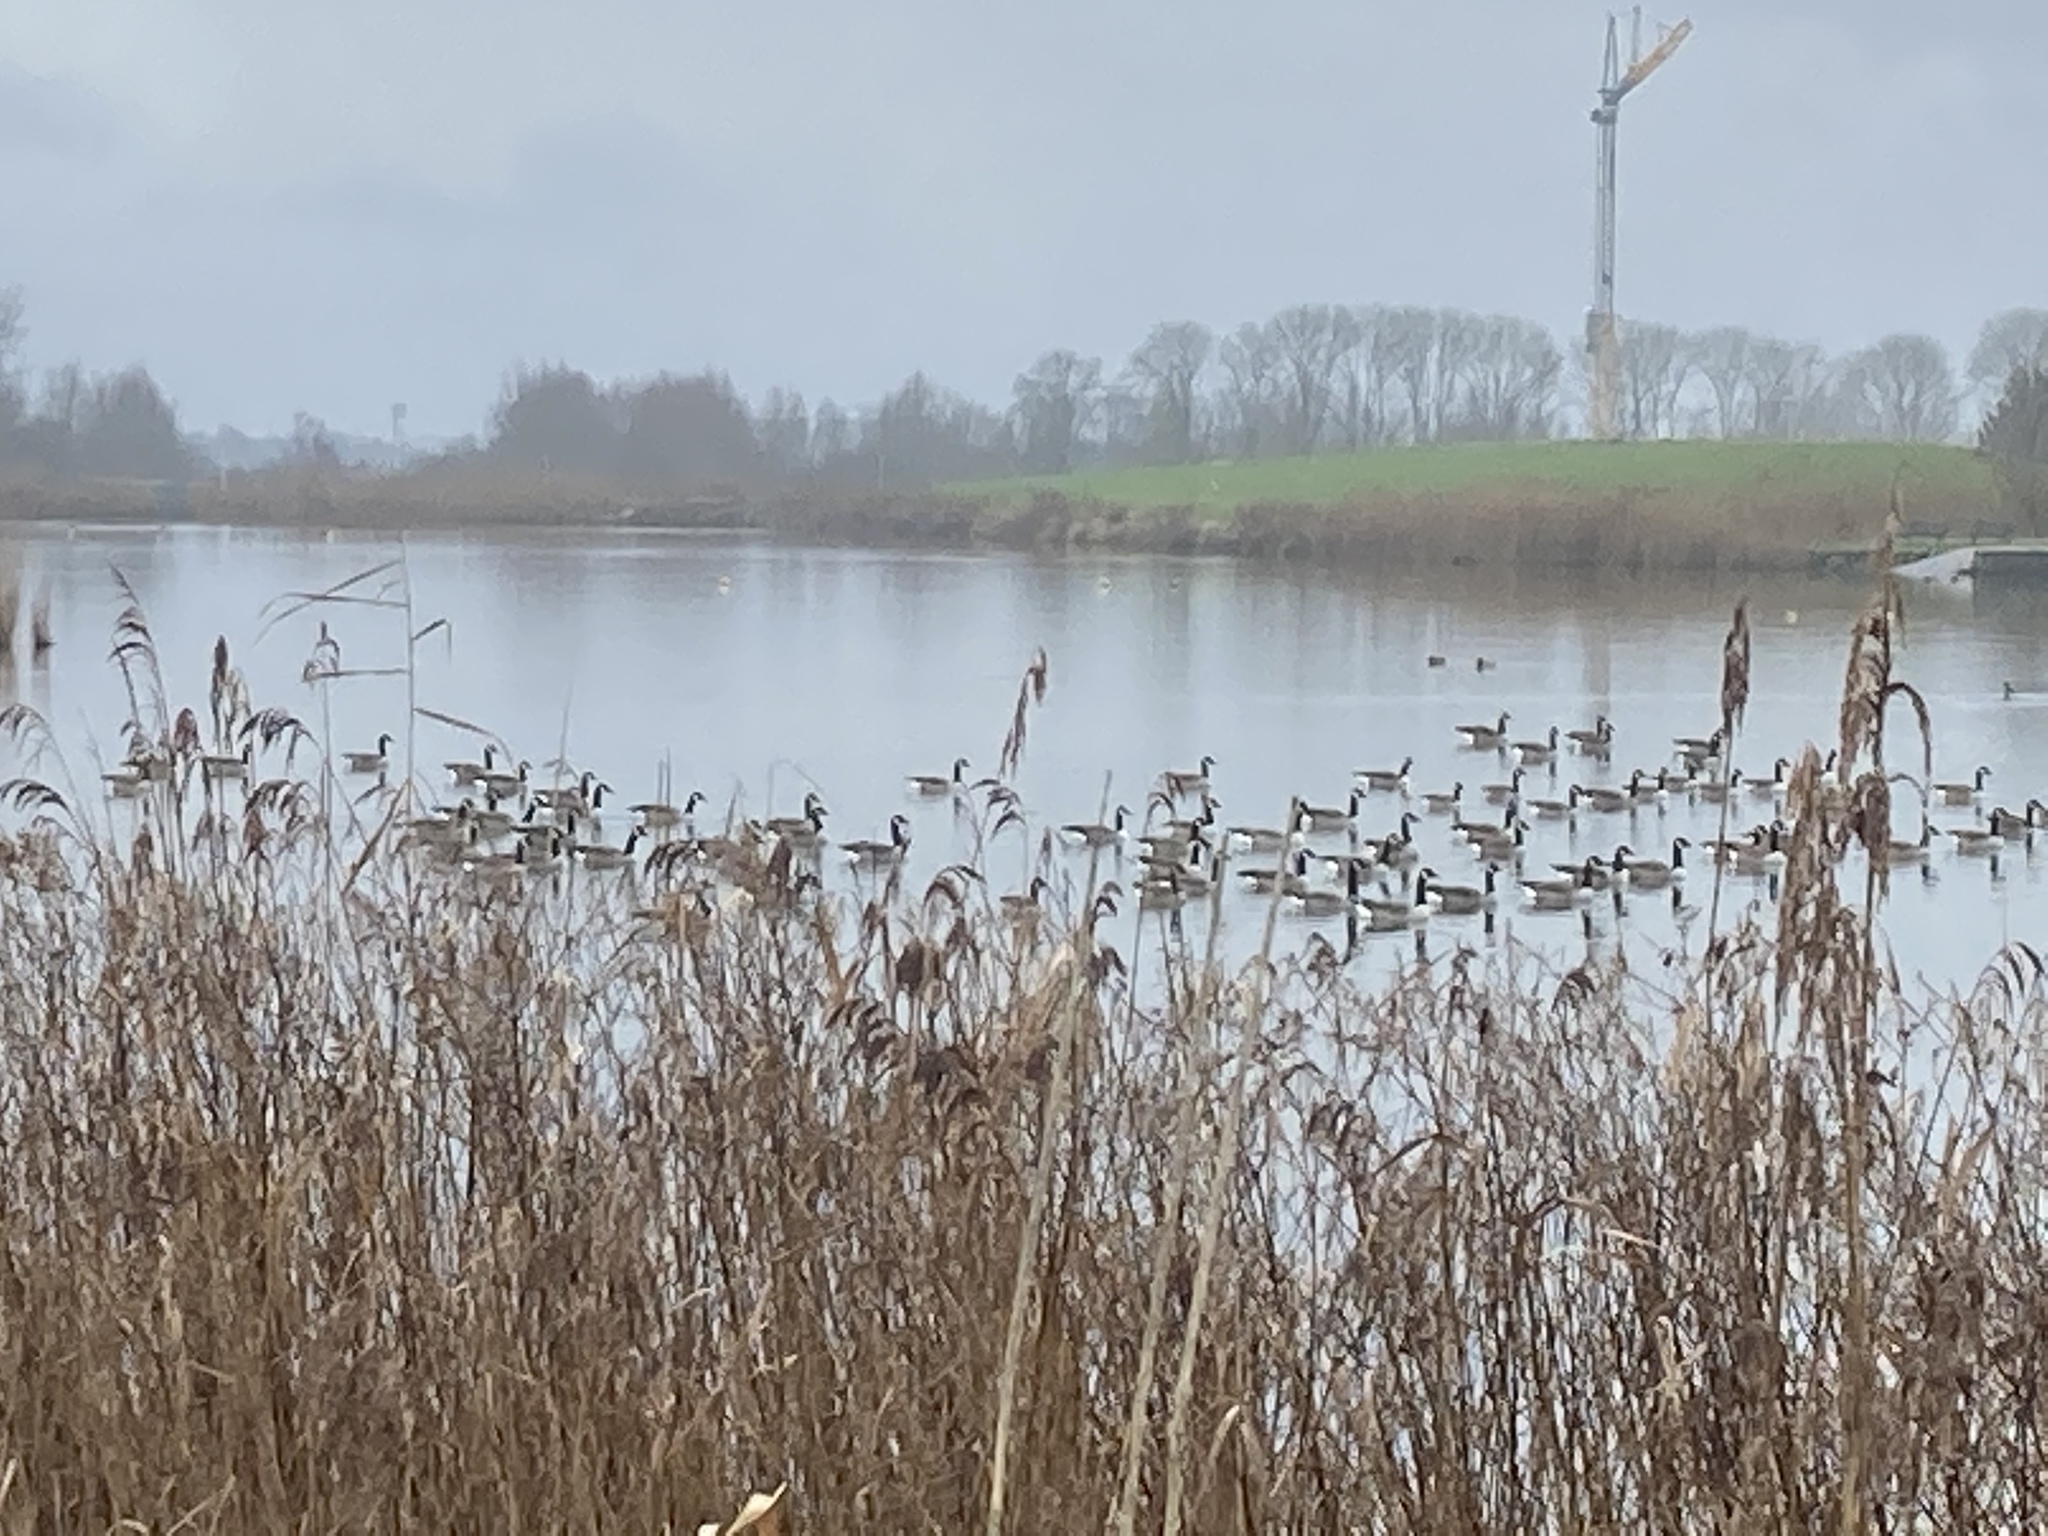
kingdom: Animalia
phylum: Chordata
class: Aves
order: Anseriformes
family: Anatidae
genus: Branta
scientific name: Branta canadensis
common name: Canada goose
